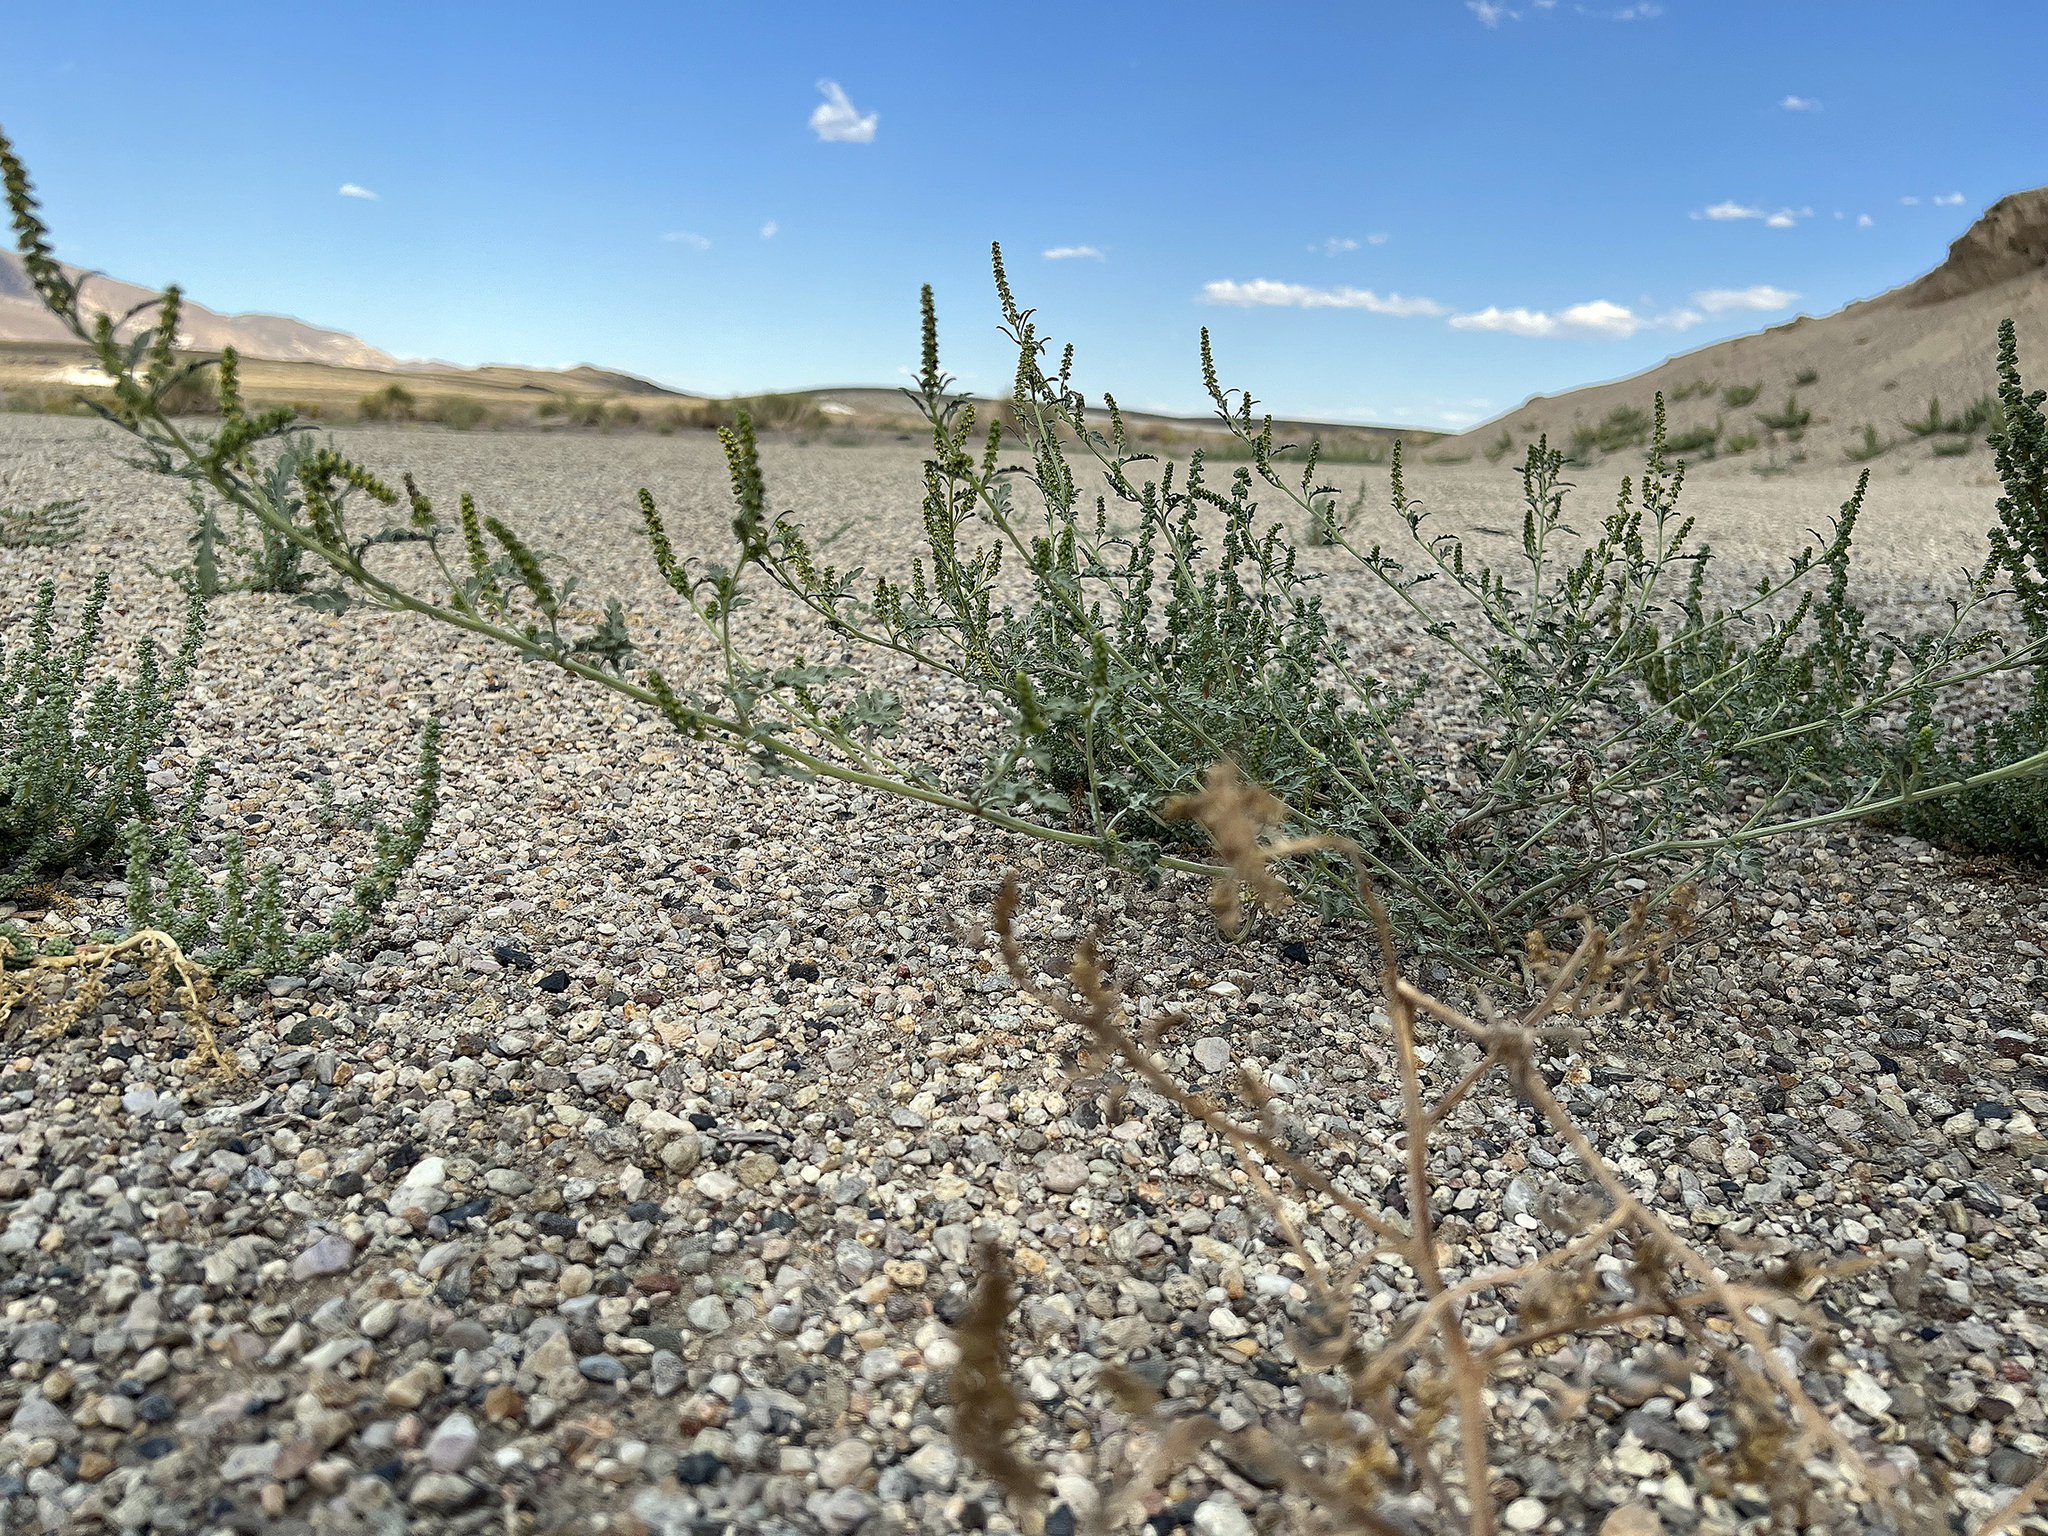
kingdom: Plantae
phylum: Tracheophyta
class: Magnoliopsida
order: Asterales
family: Asteraceae
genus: Ambrosia
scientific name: Ambrosia acanthicarpa
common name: Hooker's bur ragweed
